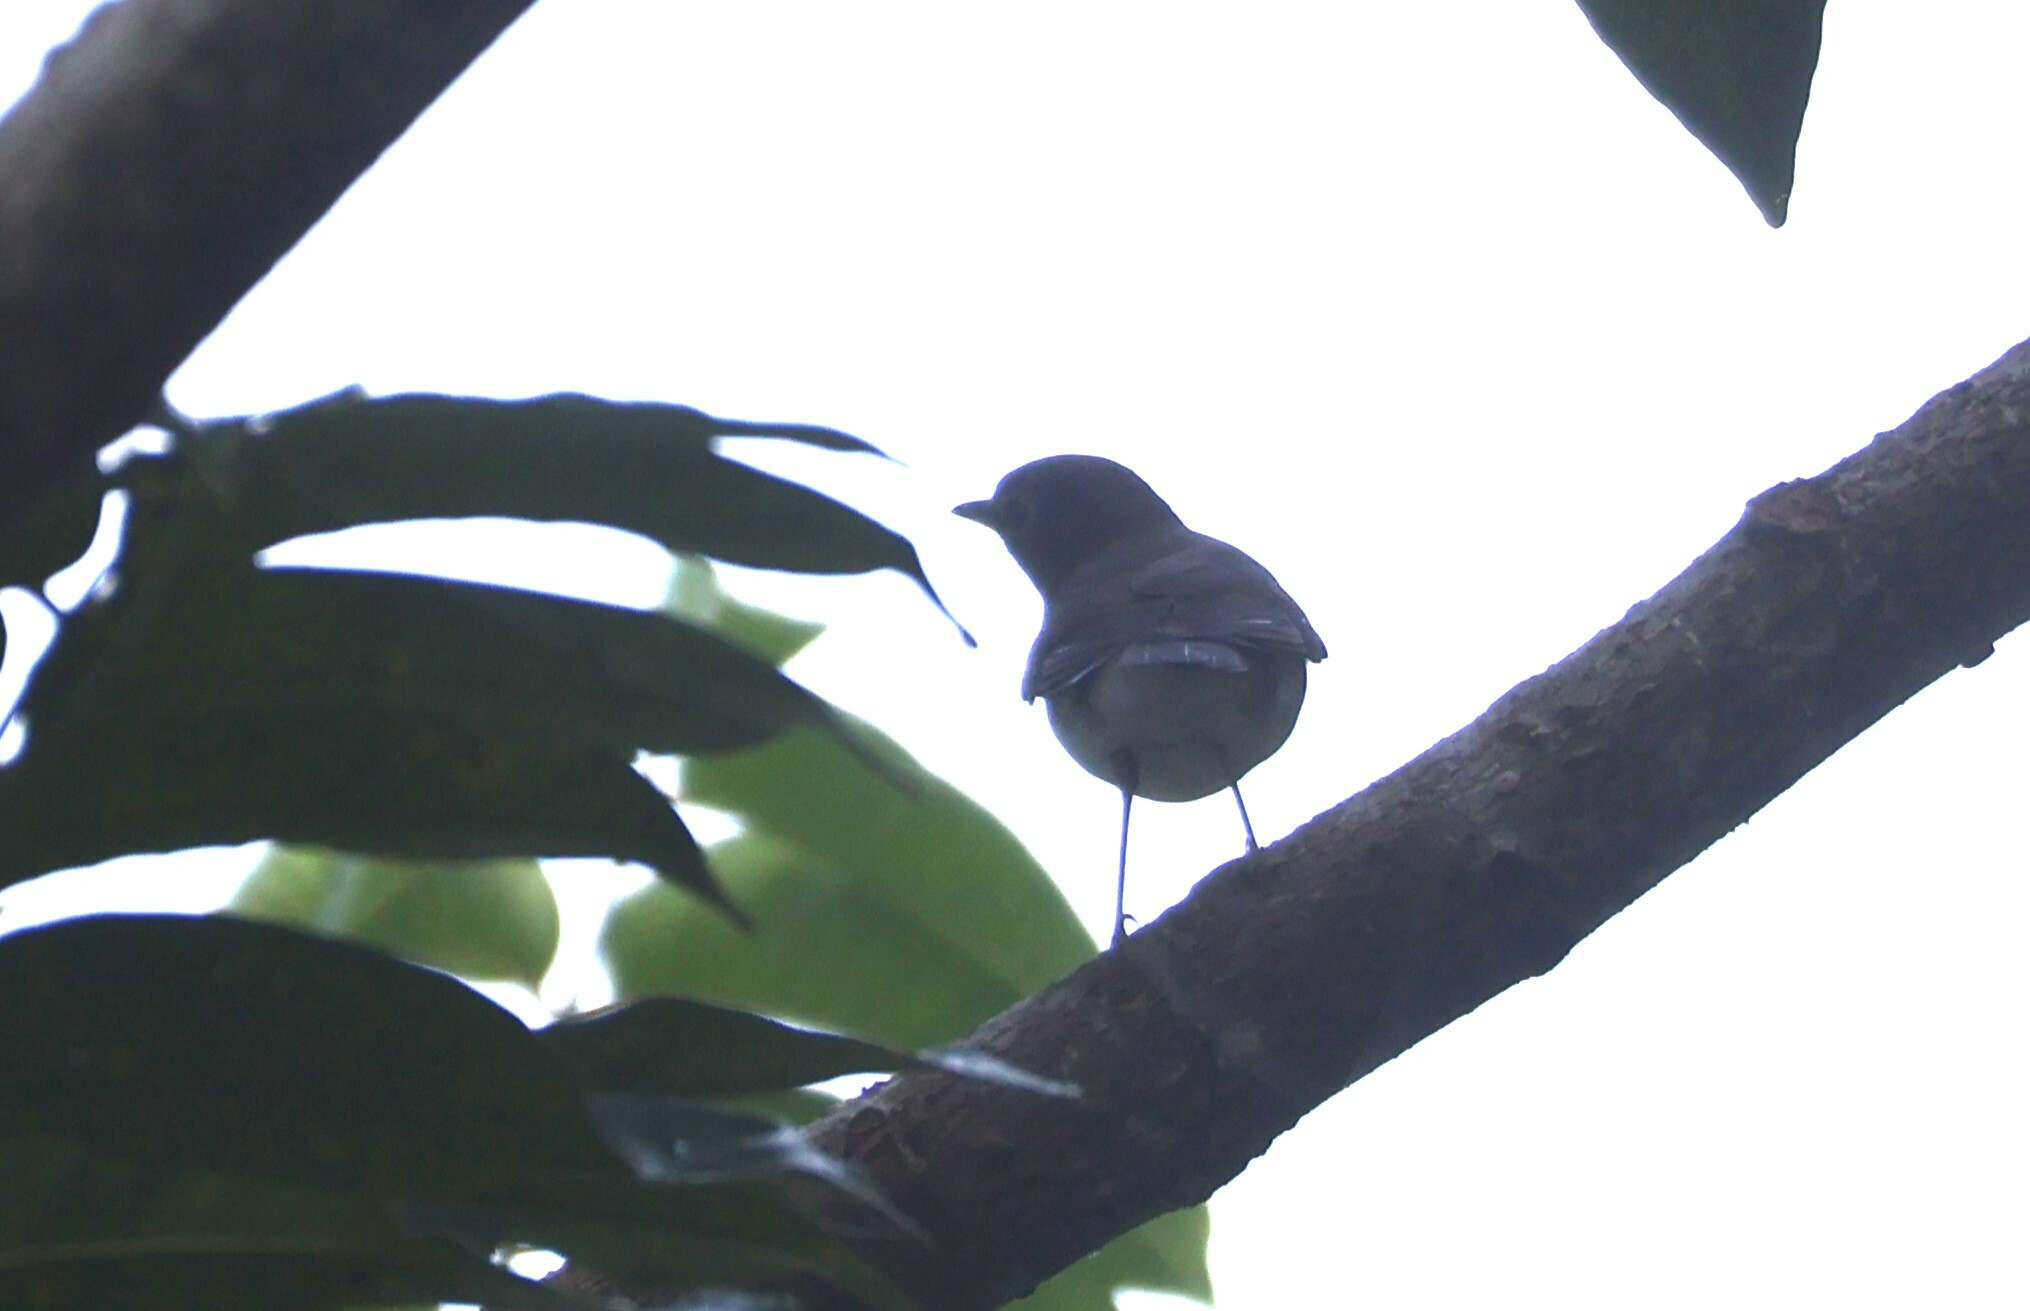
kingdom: Animalia
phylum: Chordata
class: Aves
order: Passeriformes
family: Turdidae
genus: Catharus
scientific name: Catharus ustulatus
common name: Swainson's thrush
